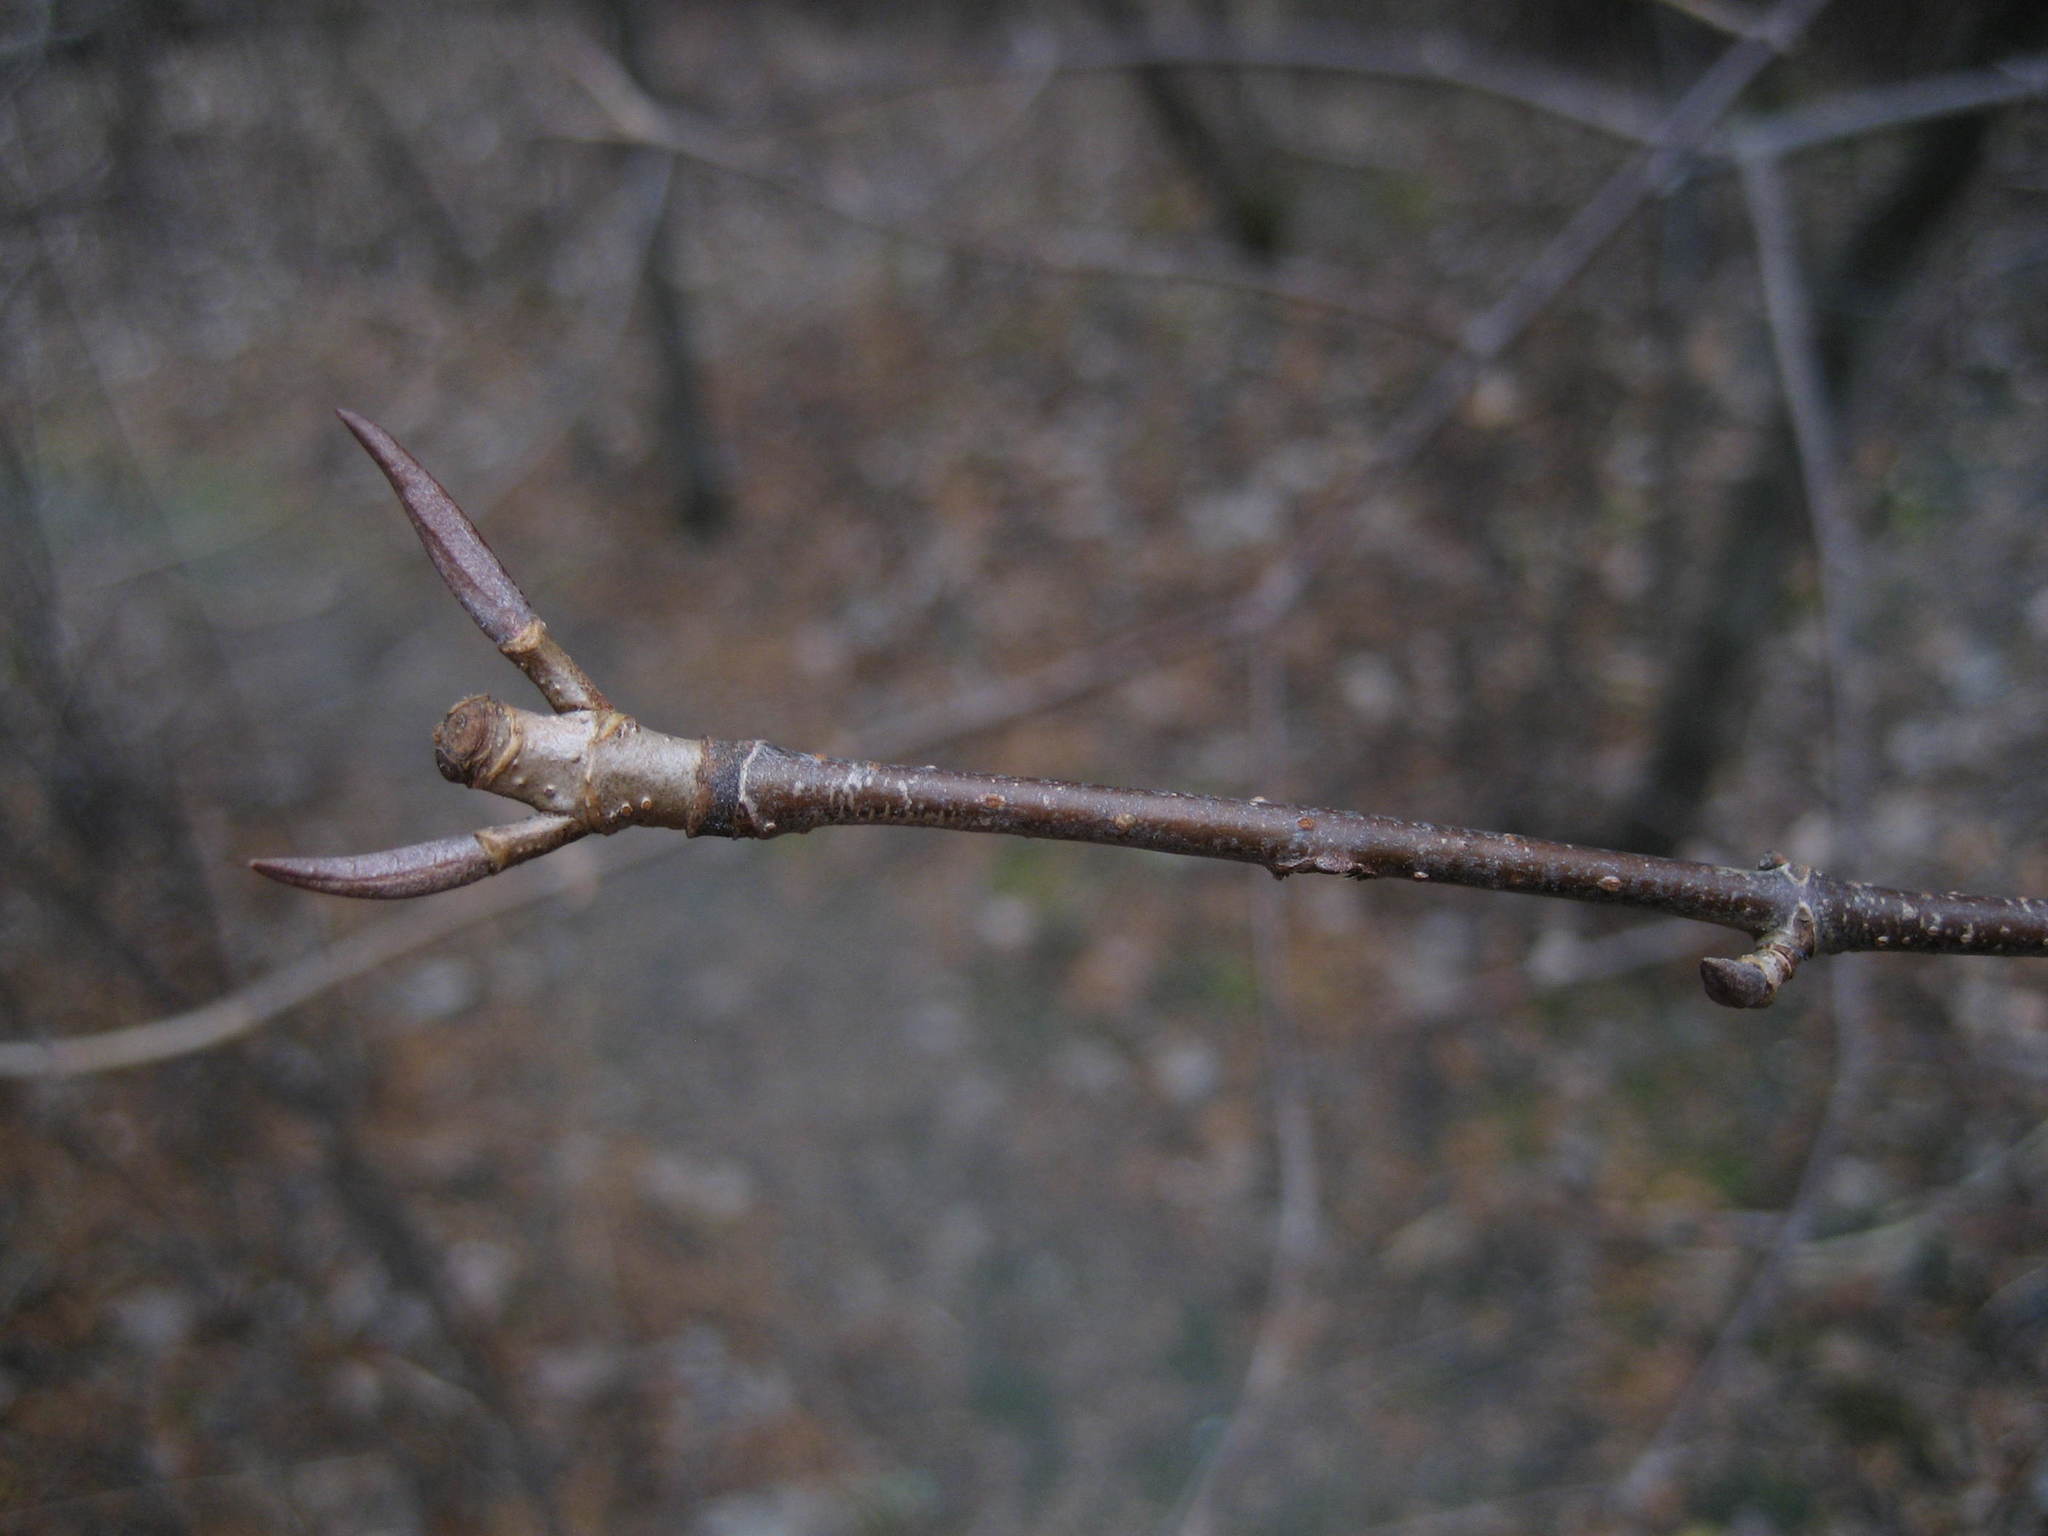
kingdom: Plantae
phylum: Tracheophyta
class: Magnoliopsida
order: Dipsacales
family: Viburnaceae
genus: Viburnum
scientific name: Viburnum lentago
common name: Black haw
